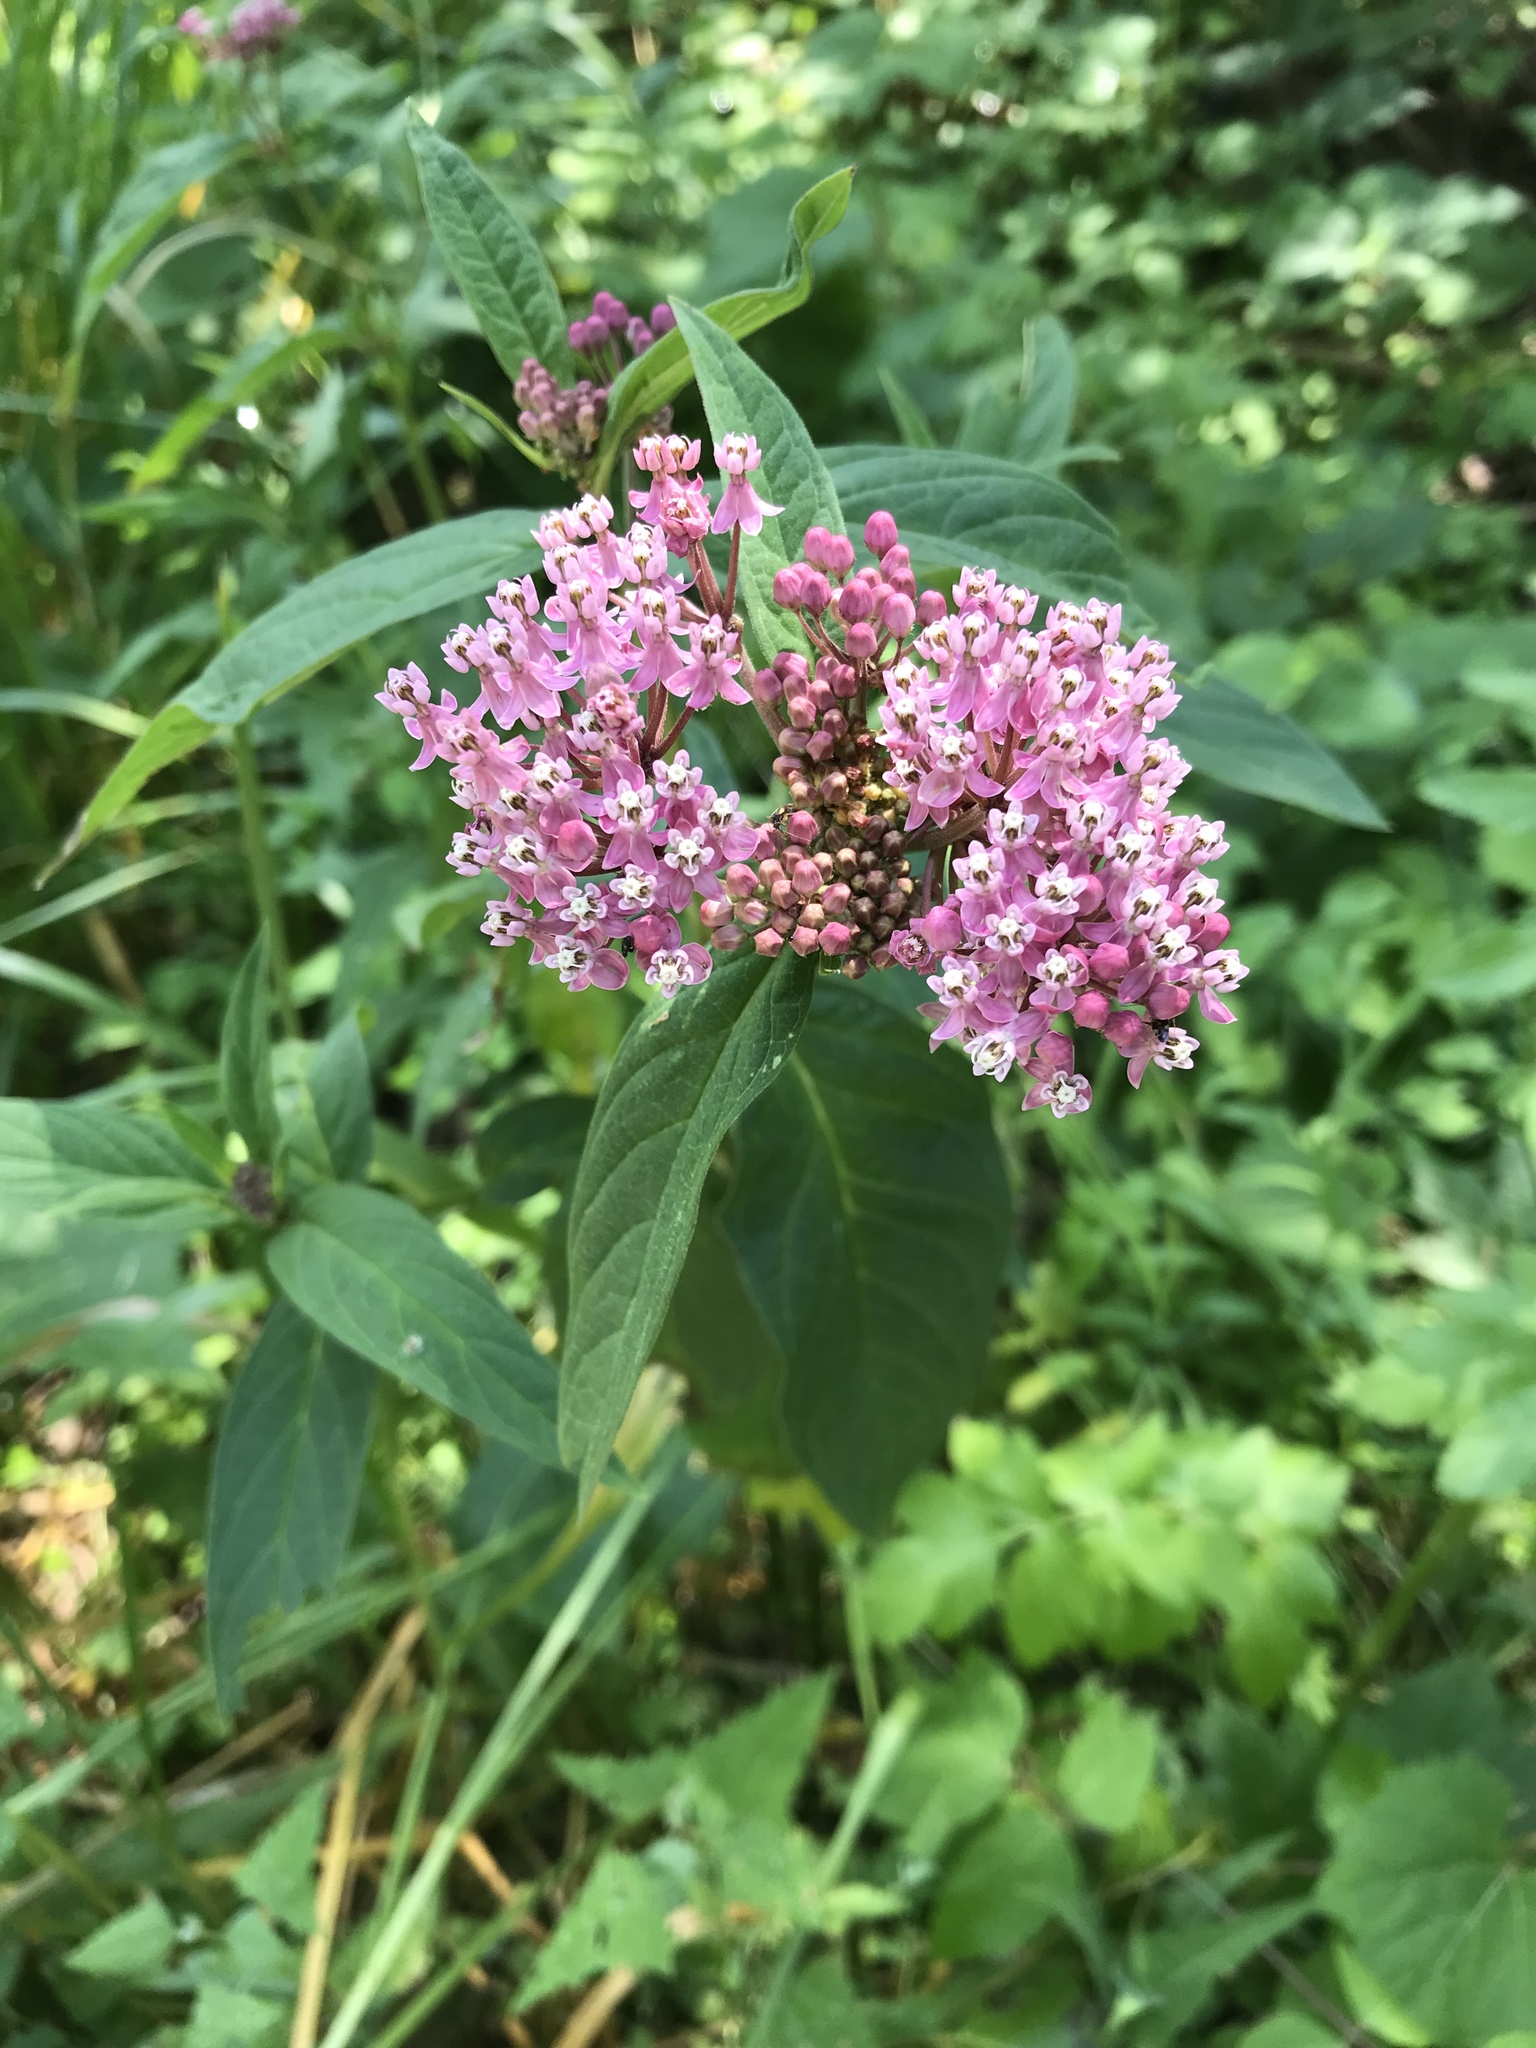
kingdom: Plantae
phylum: Tracheophyta
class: Magnoliopsida
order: Gentianales
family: Apocynaceae
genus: Asclepias
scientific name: Asclepias incarnata
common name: Swamp milkweed
